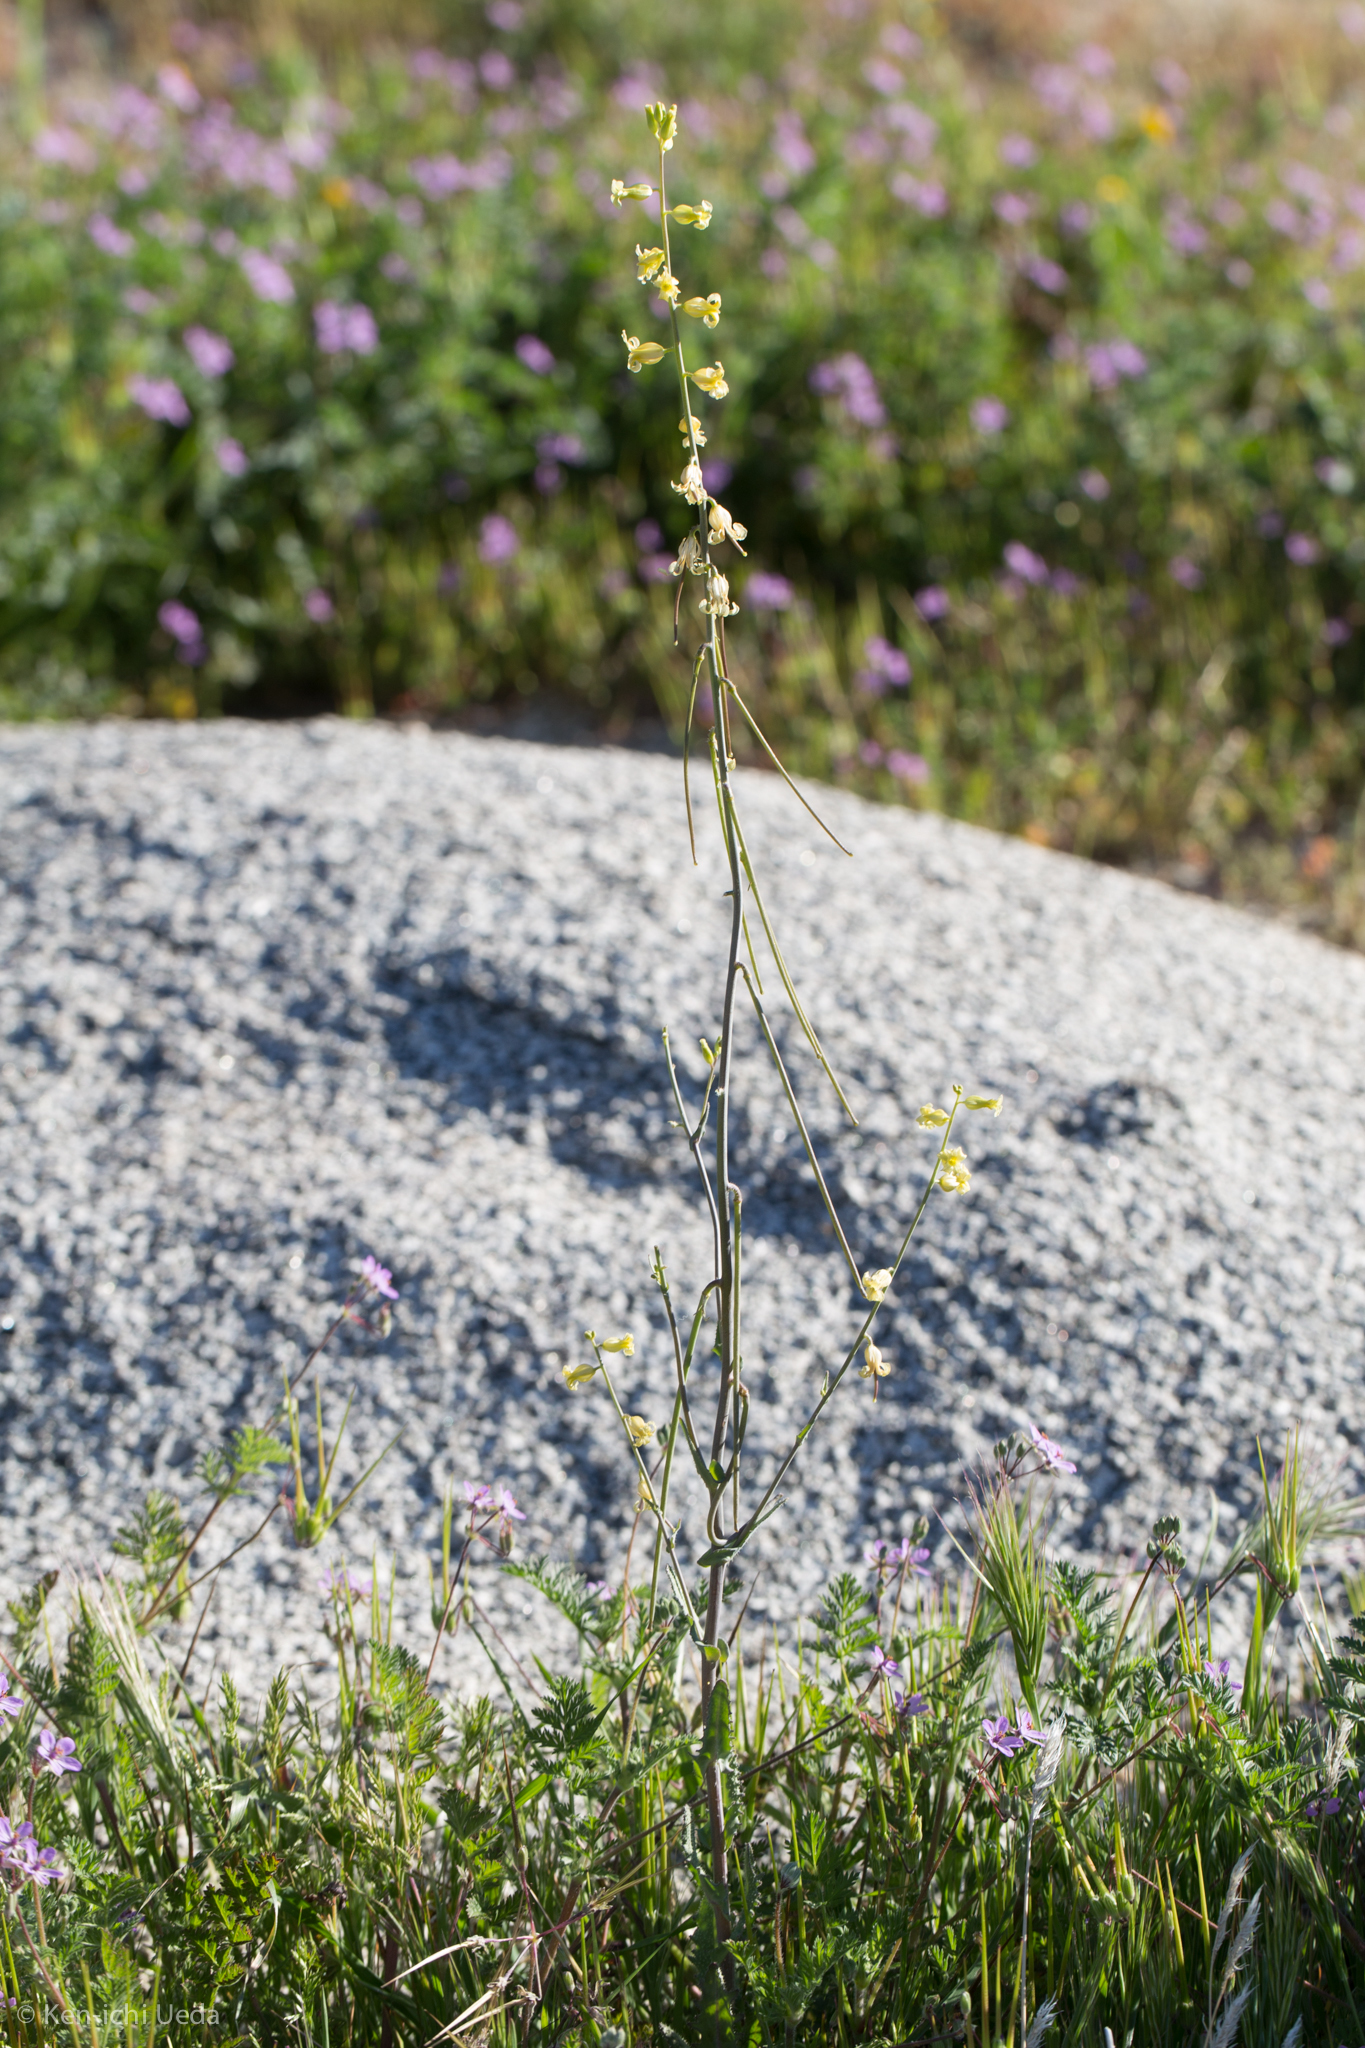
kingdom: Plantae
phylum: Tracheophyta
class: Magnoliopsida
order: Brassicales
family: Brassicaceae
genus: Streptanthus
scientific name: Streptanthus simulans
